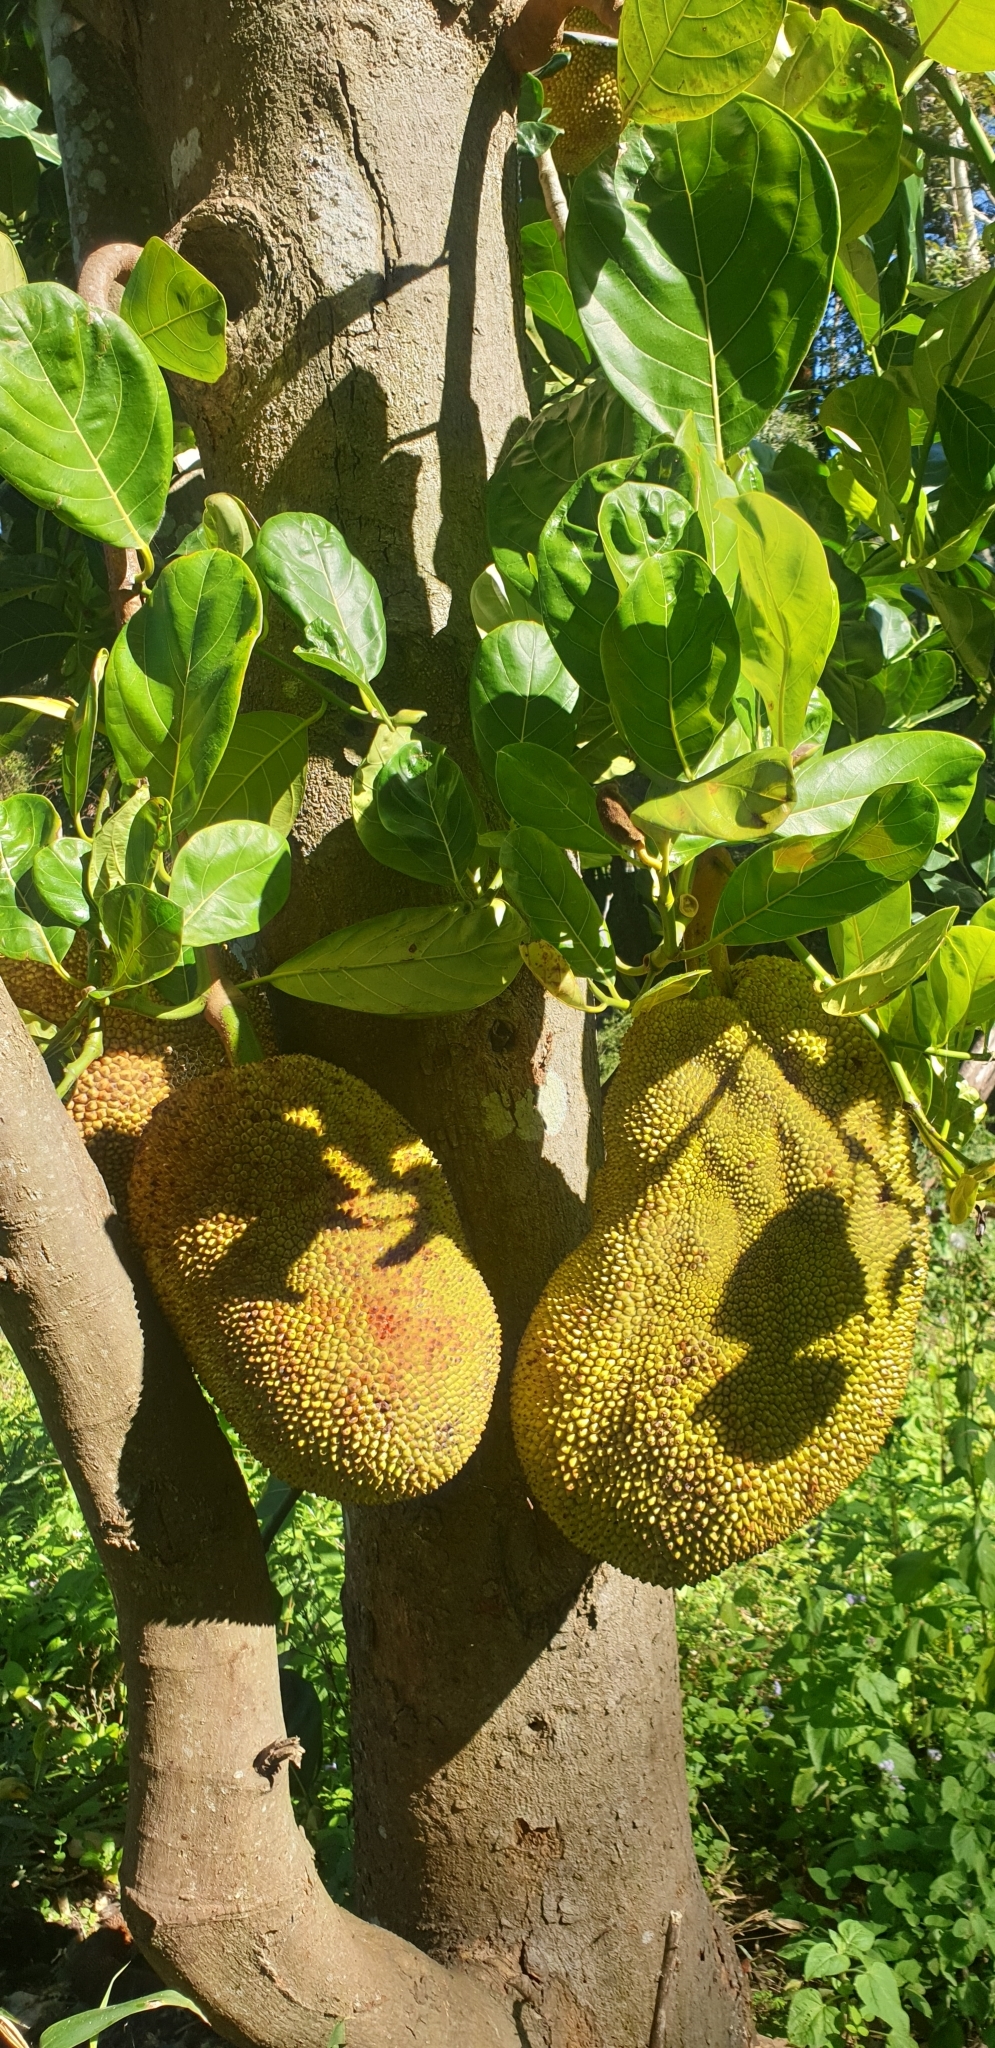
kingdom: Plantae
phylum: Tracheophyta
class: Magnoliopsida
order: Rosales
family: Moraceae
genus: Artocarpus
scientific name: Artocarpus heterophyllus
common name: Jackfruit
